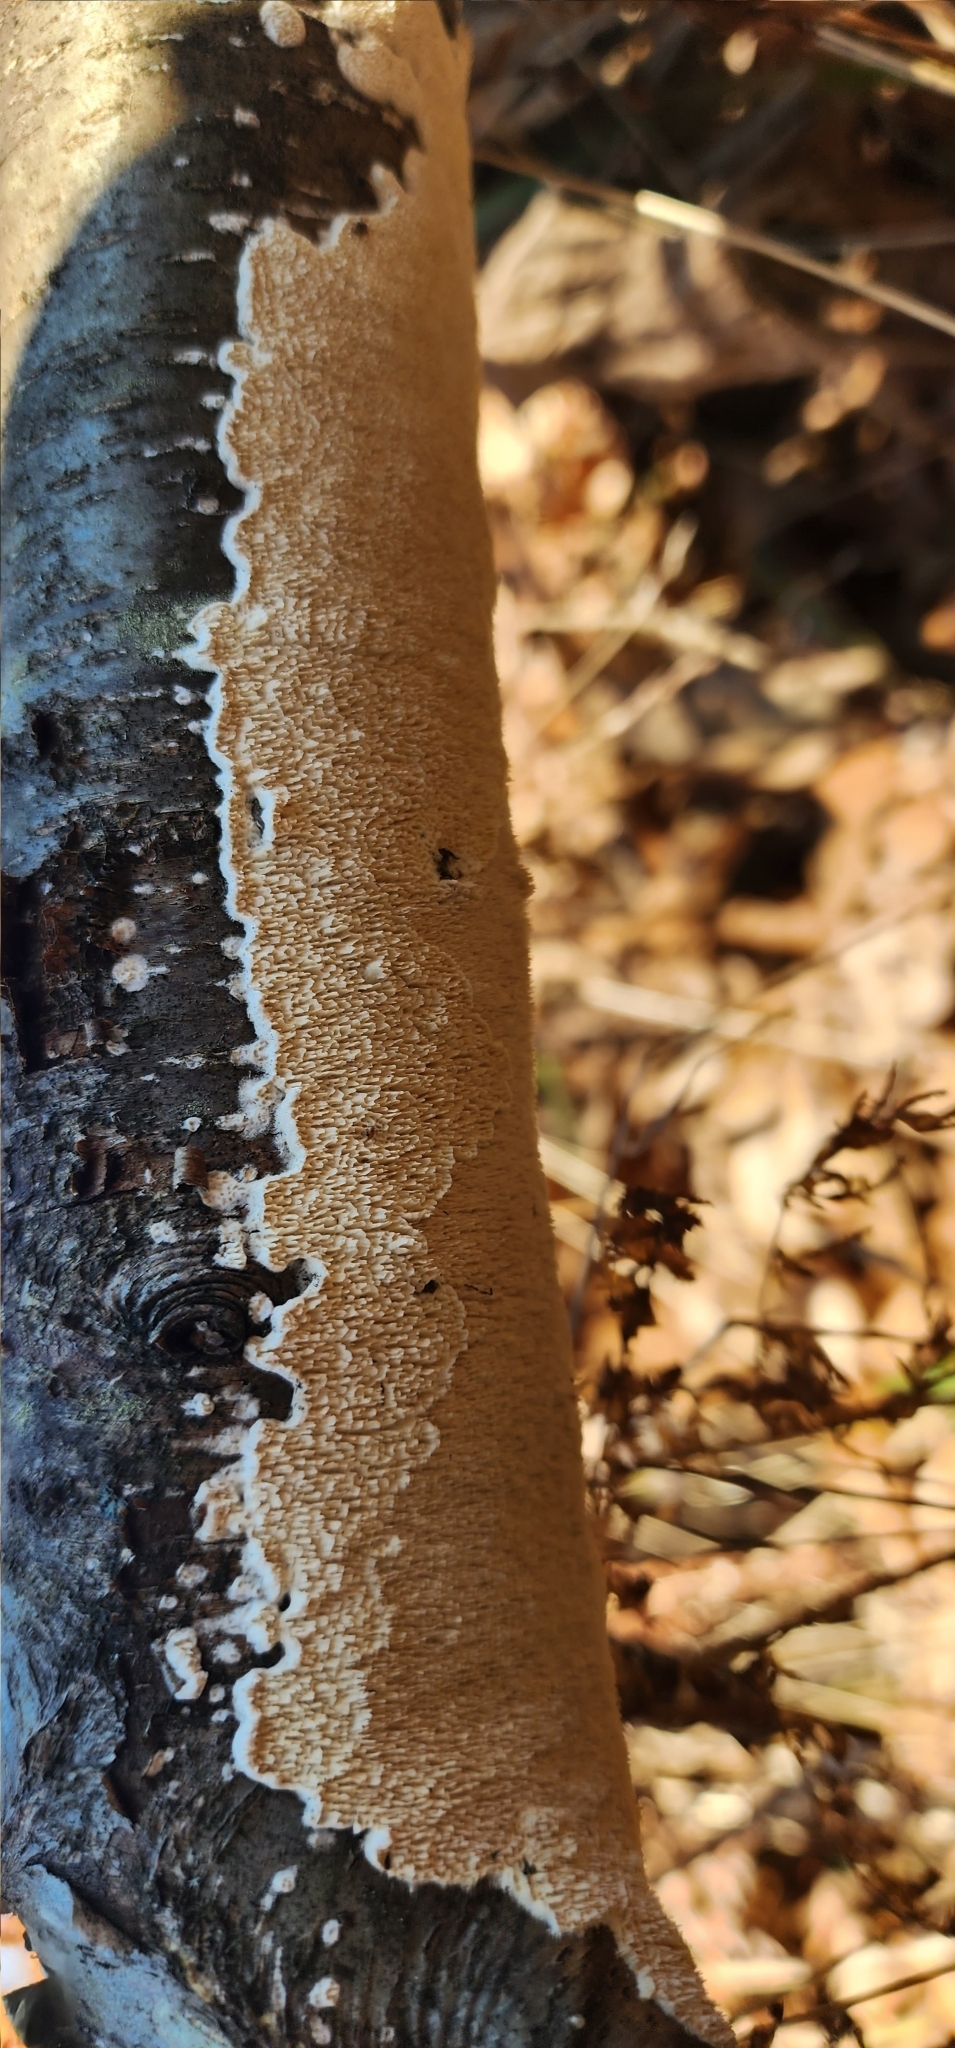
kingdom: Fungi
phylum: Basidiomycota
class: Agaricomycetes
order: Polyporales
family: Irpicaceae
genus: Irpex
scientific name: Irpex lacteus
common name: Milk-white toothed polypore
